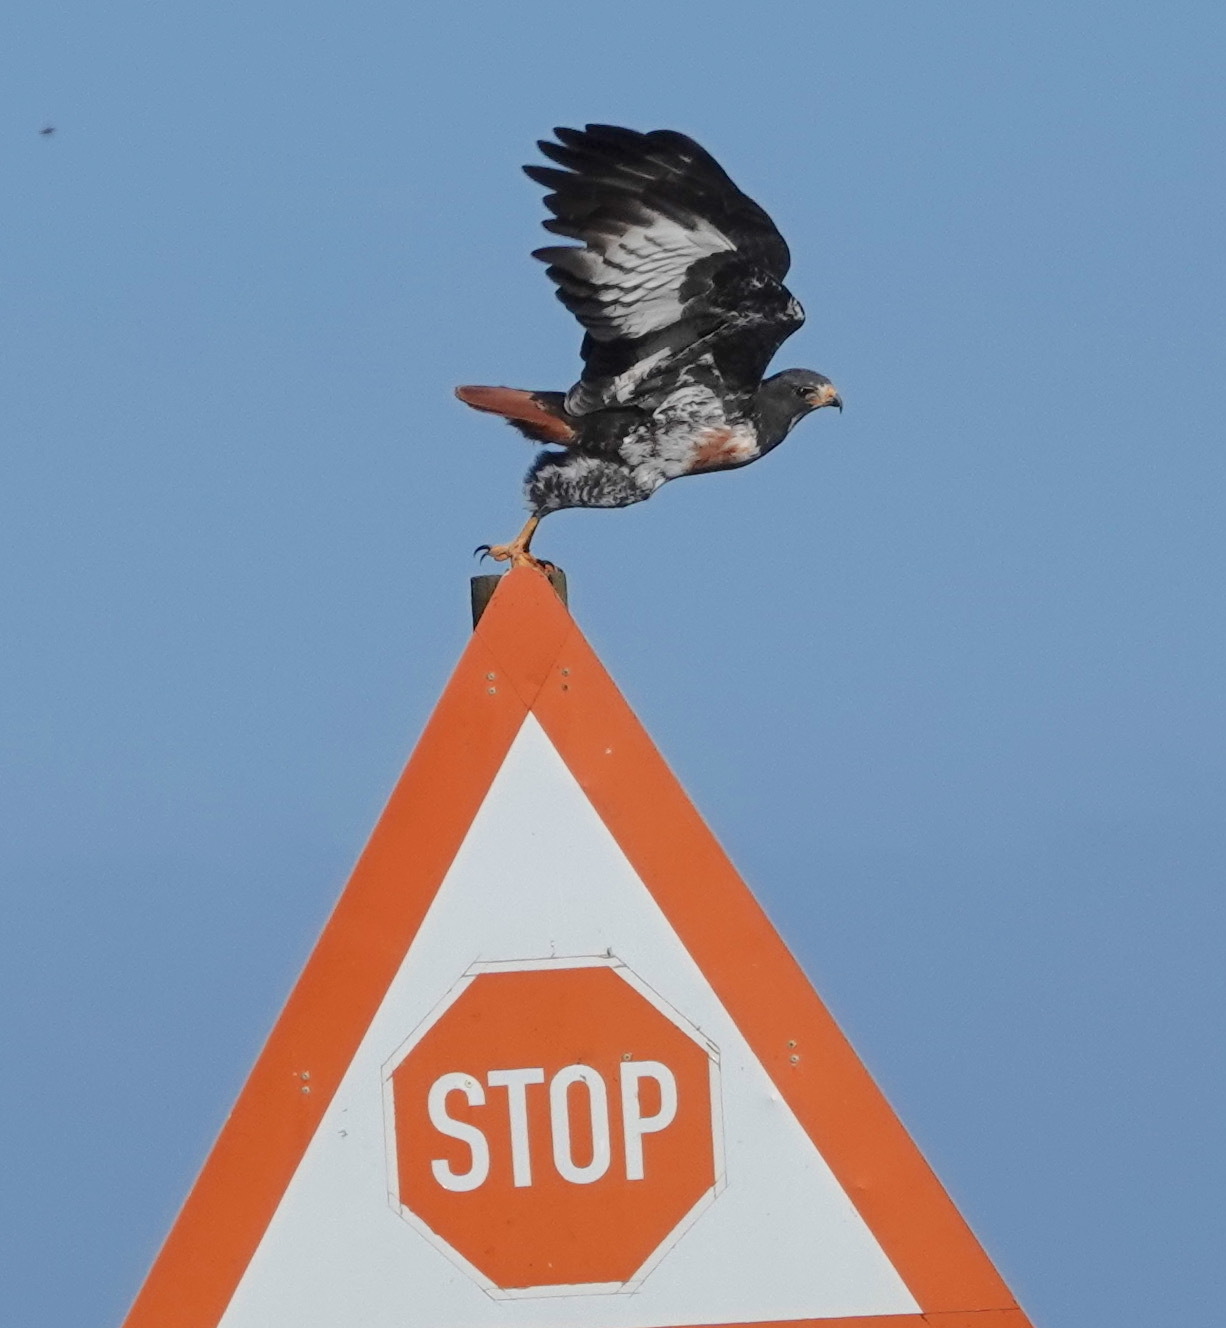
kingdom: Animalia
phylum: Chordata
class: Aves
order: Accipitriformes
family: Accipitridae
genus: Buteo
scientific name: Buteo rufofuscus
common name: Jackal buzzard
